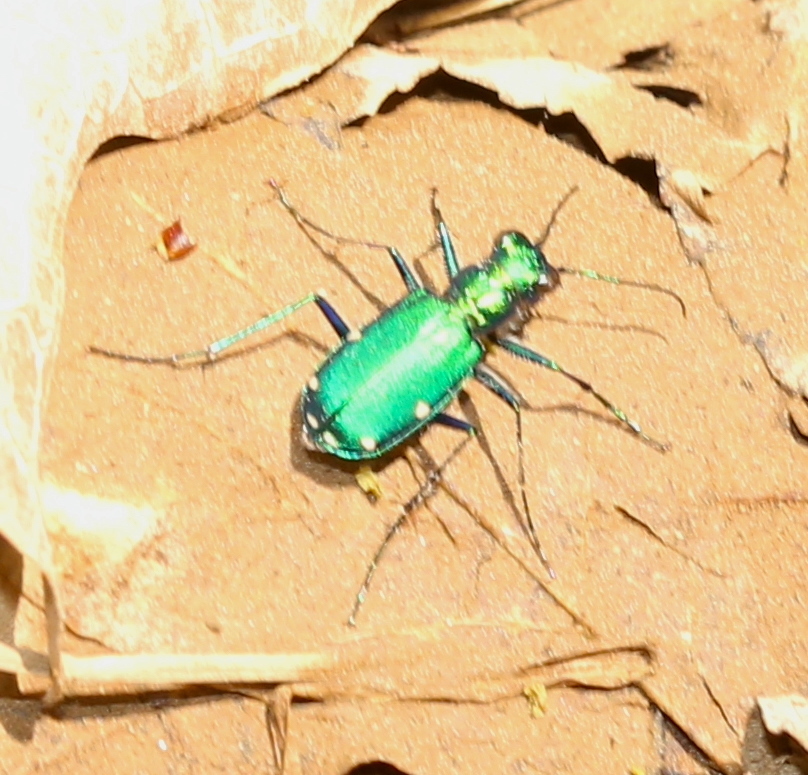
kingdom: Animalia
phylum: Arthropoda
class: Insecta
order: Coleoptera
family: Carabidae
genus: Cicindela
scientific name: Cicindela sexguttata
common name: Six-spotted tiger beetle
